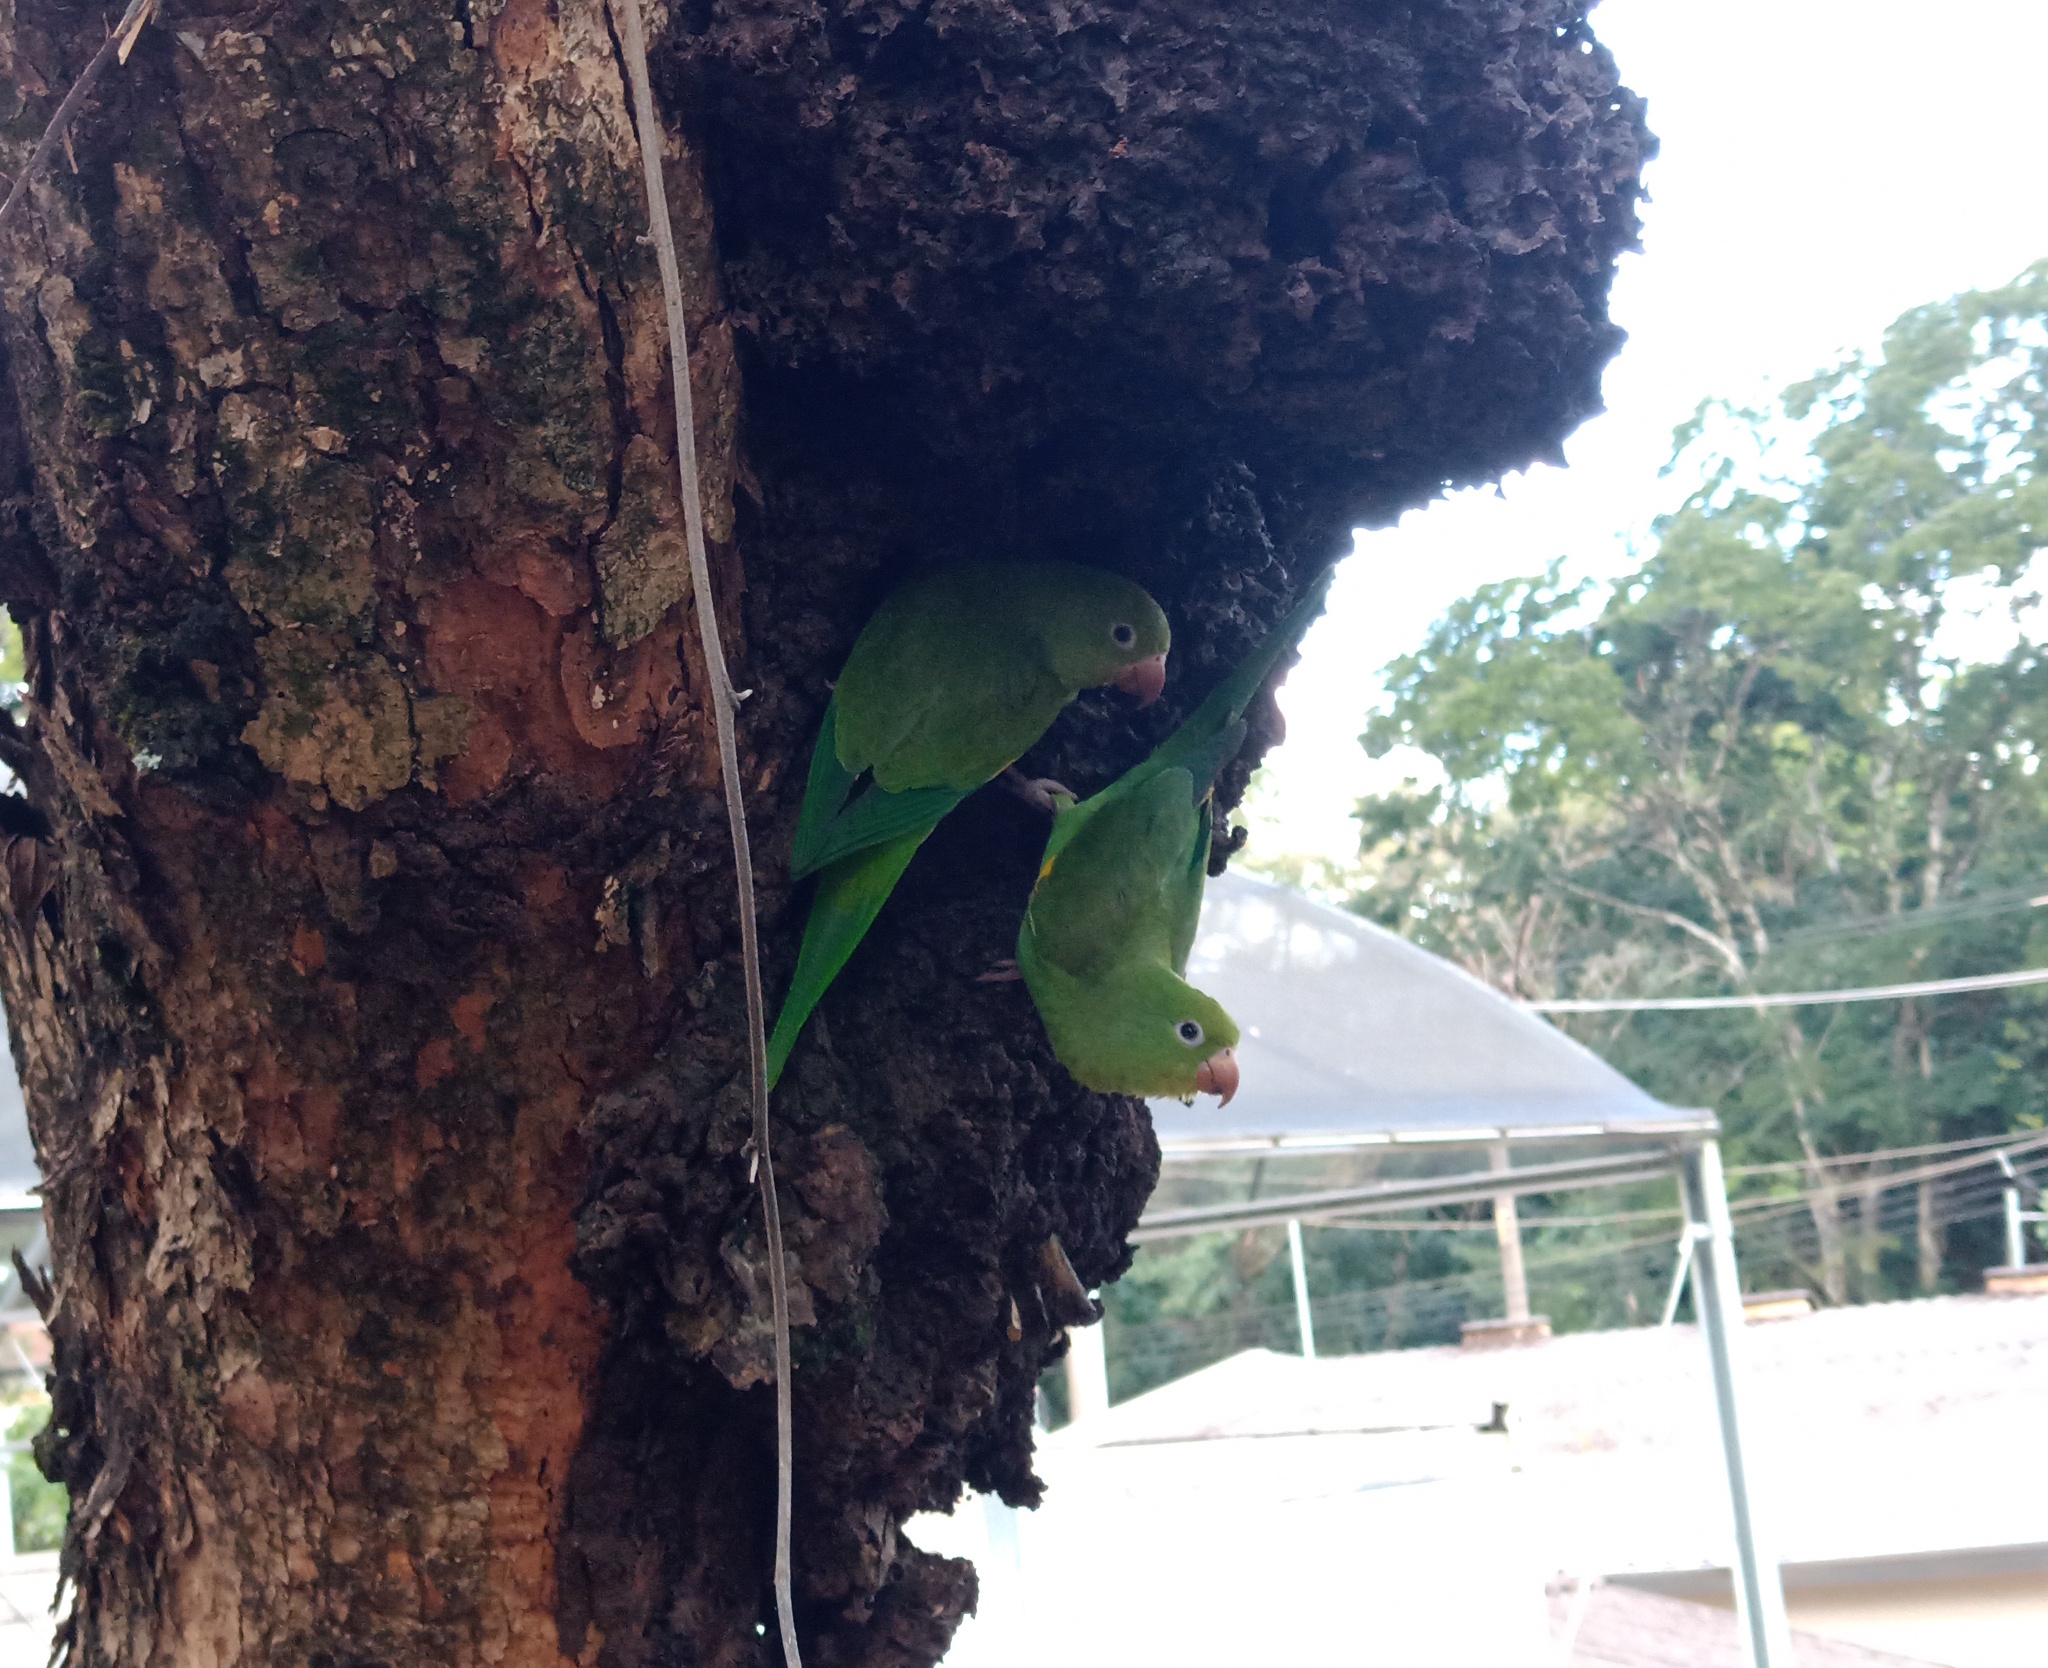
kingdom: Animalia
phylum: Chordata
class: Aves
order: Psittaciformes
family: Psittacidae
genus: Brotogeris
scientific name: Brotogeris chiriri
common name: Yellow-chevroned parakeet
